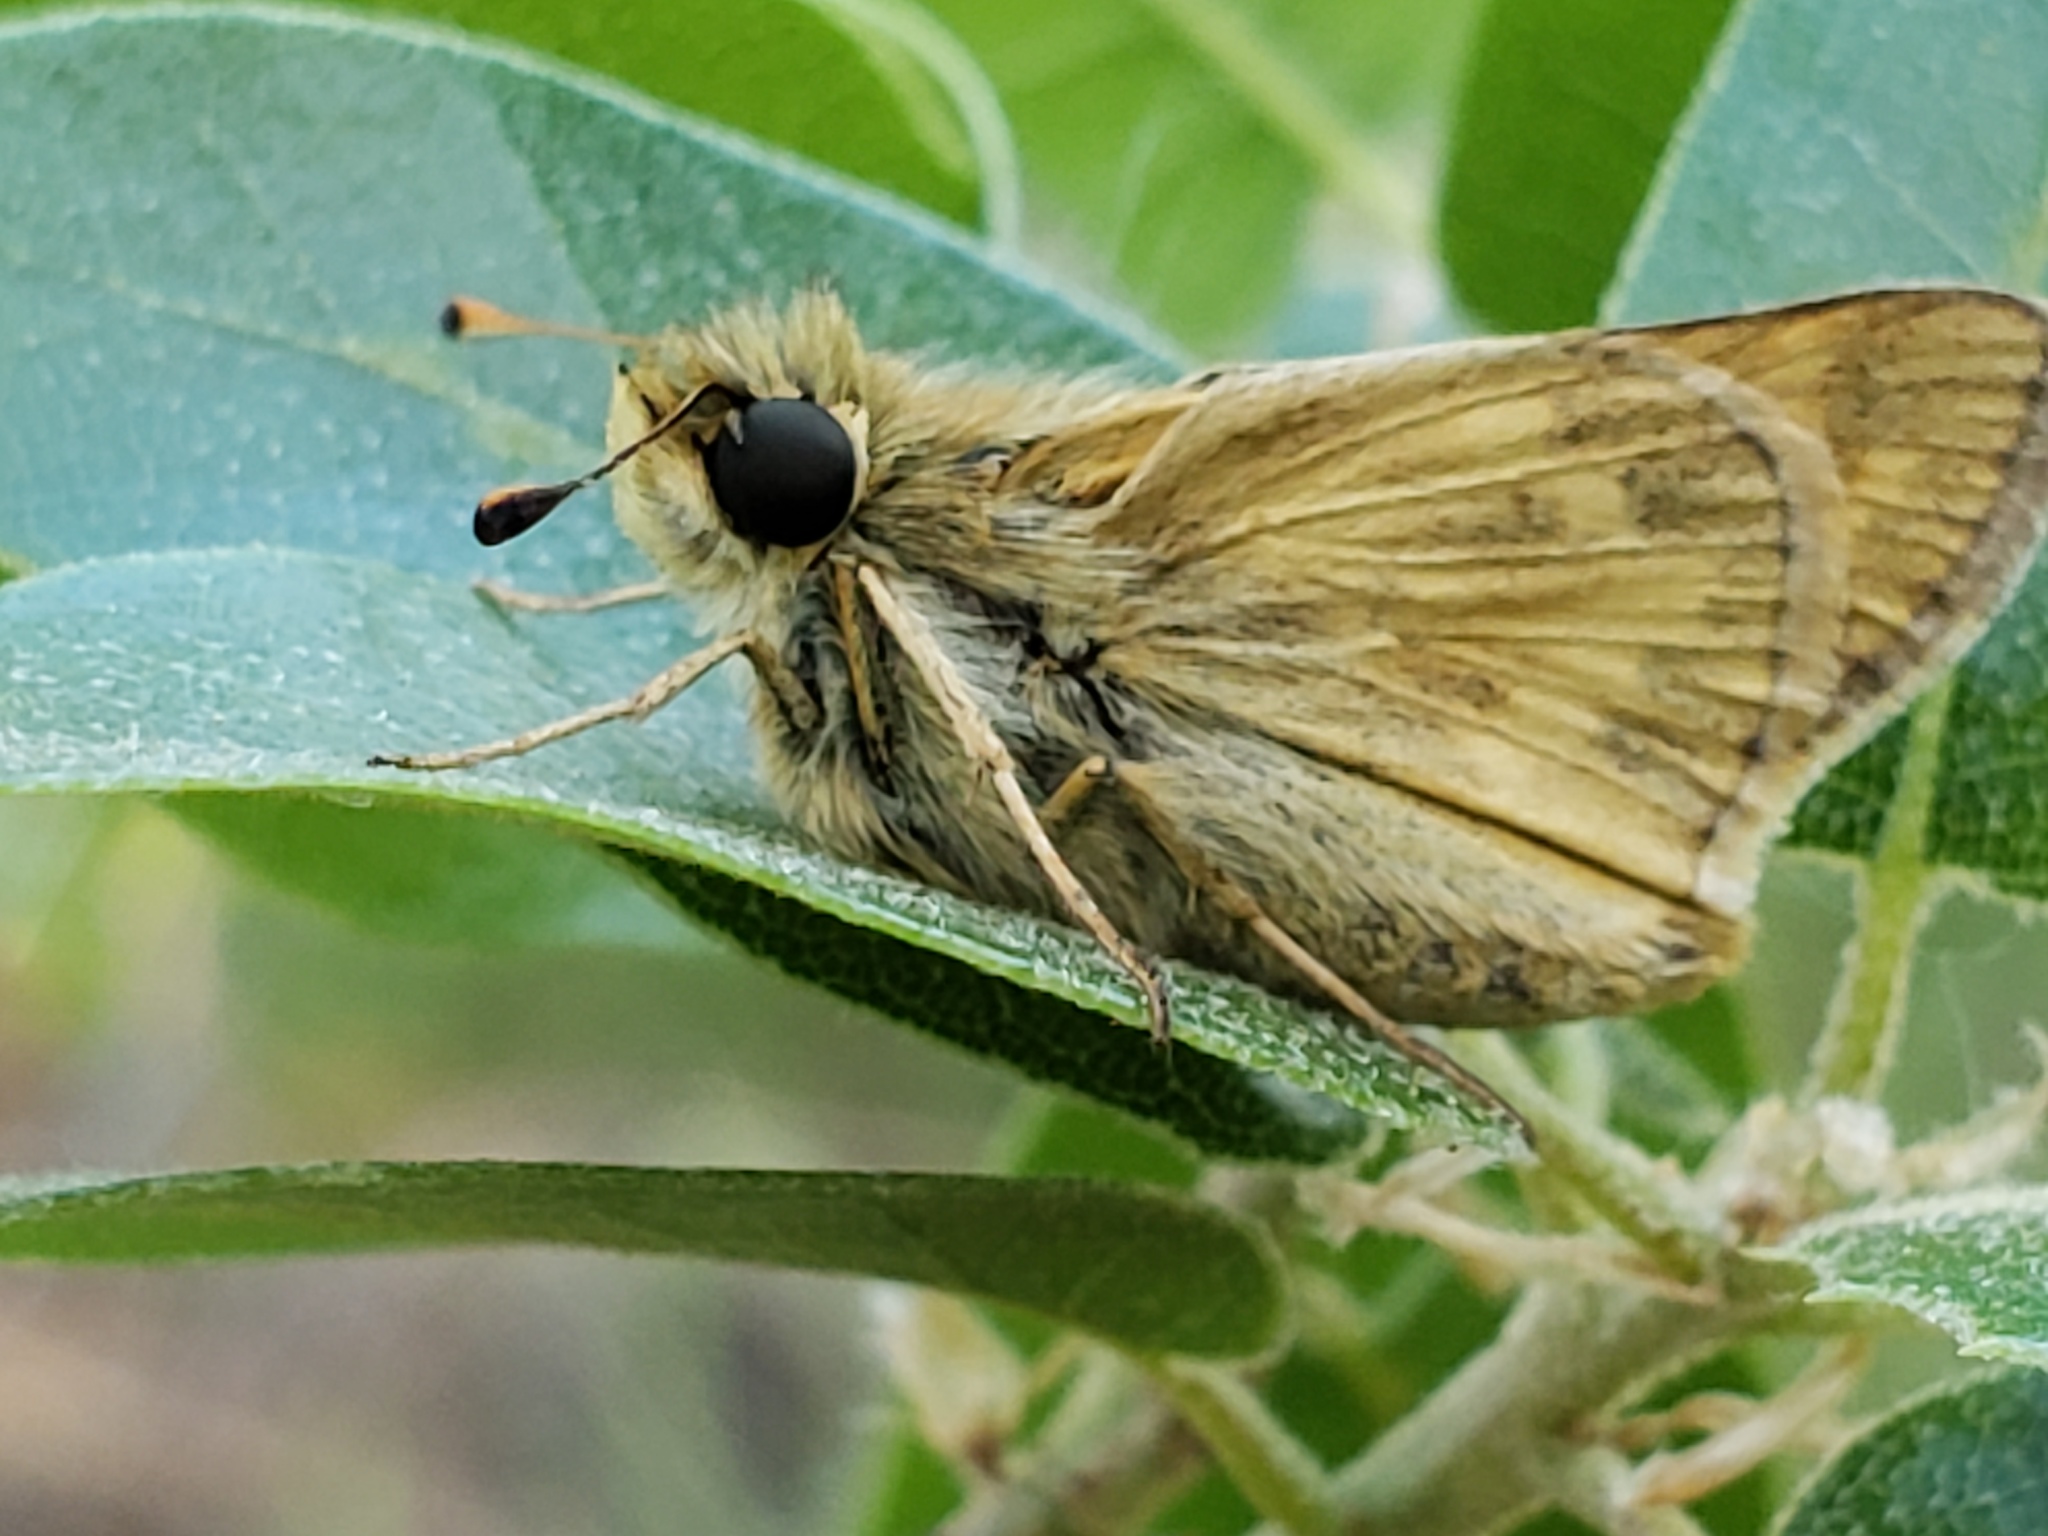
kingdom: Animalia
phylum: Arthropoda
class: Insecta
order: Lepidoptera
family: Hesperiidae
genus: Atalopedes
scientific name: Atalopedes campestris
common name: Sachem
